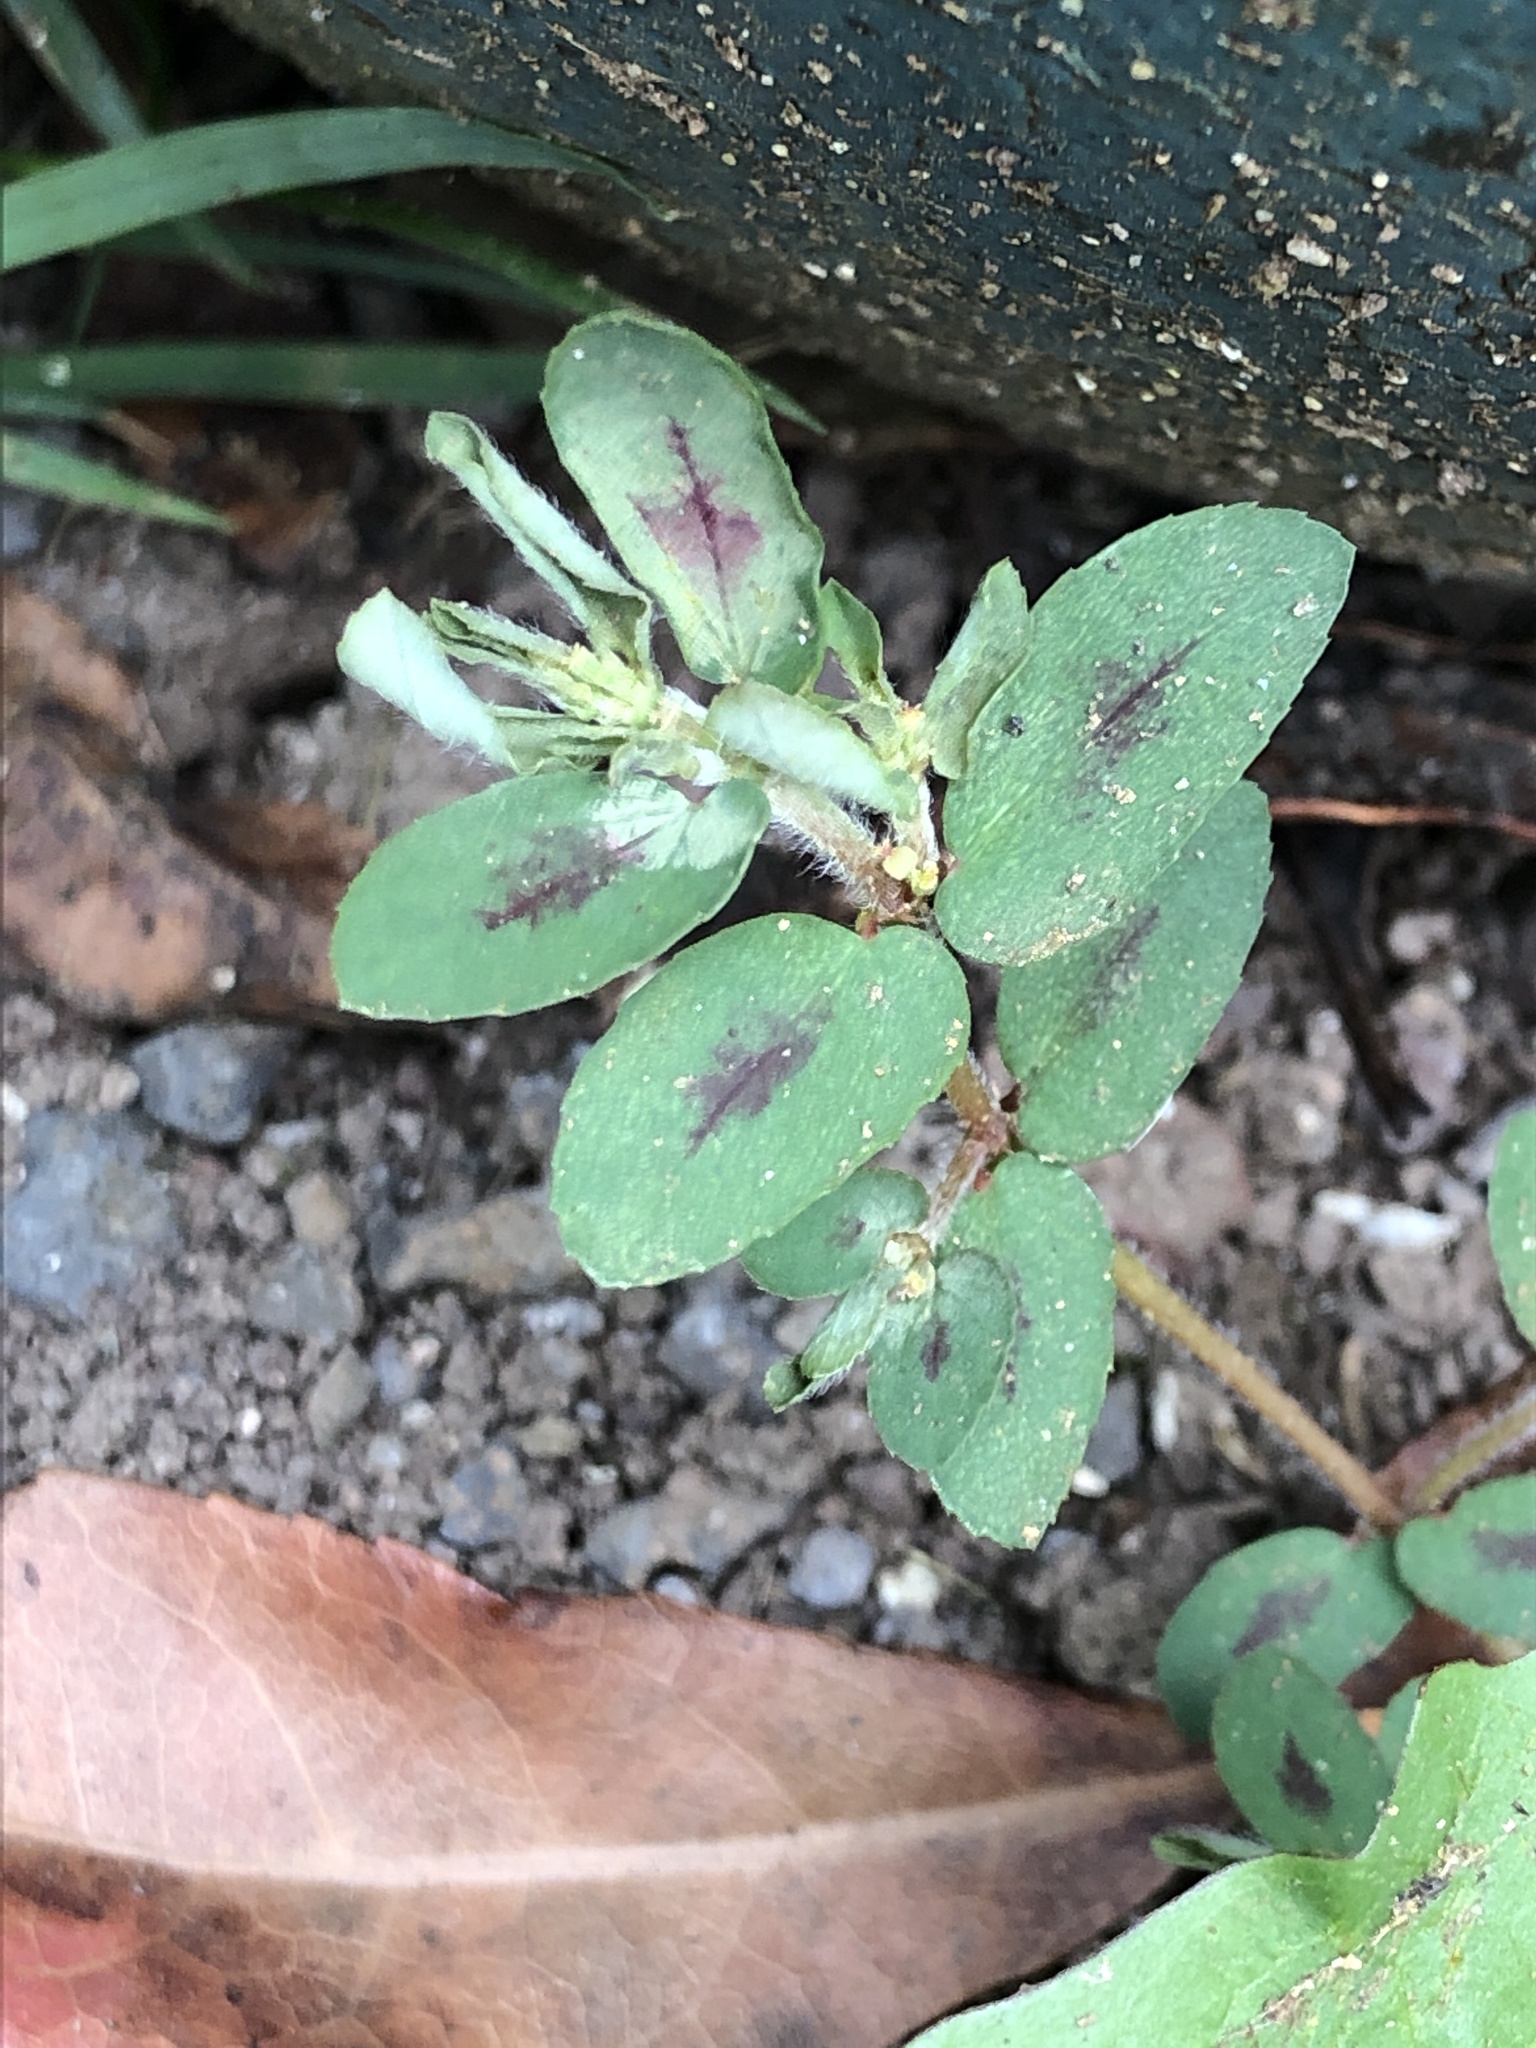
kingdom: Plantae
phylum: Tracheophyta
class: Magnoliopsida
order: Malpighiales
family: Euphorbiaceae
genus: Euphorbia
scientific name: Euphorbia maculata
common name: Spotted spurge
